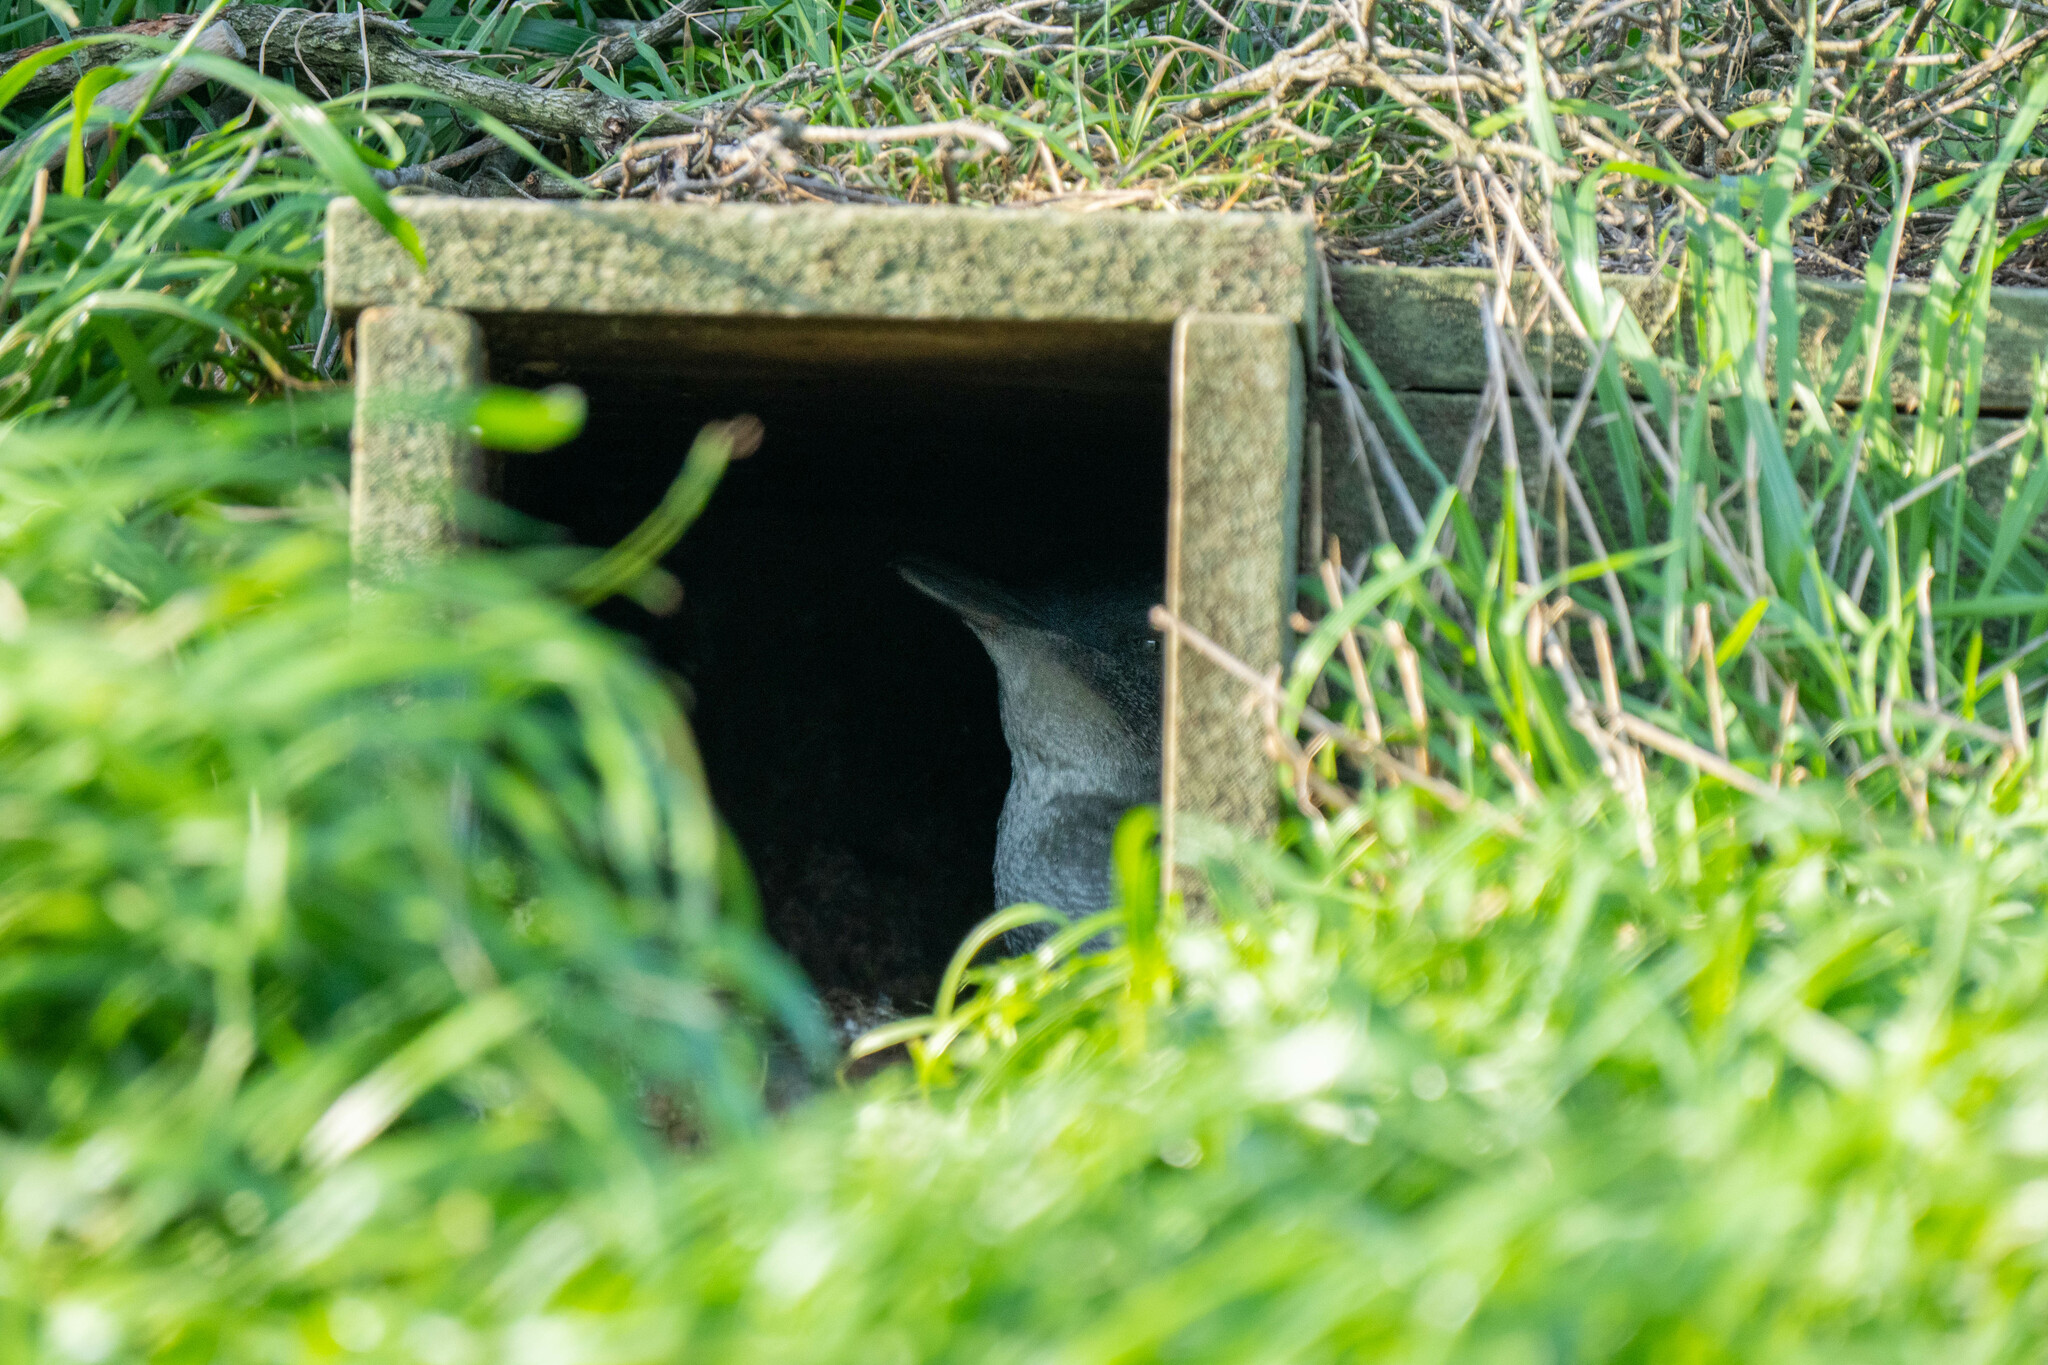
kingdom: Animalia
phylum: Chordata
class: Aves
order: Sphenisciformes
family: Spheniscidae
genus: Eudyptula
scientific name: Eudyptula minor
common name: Little penguin
